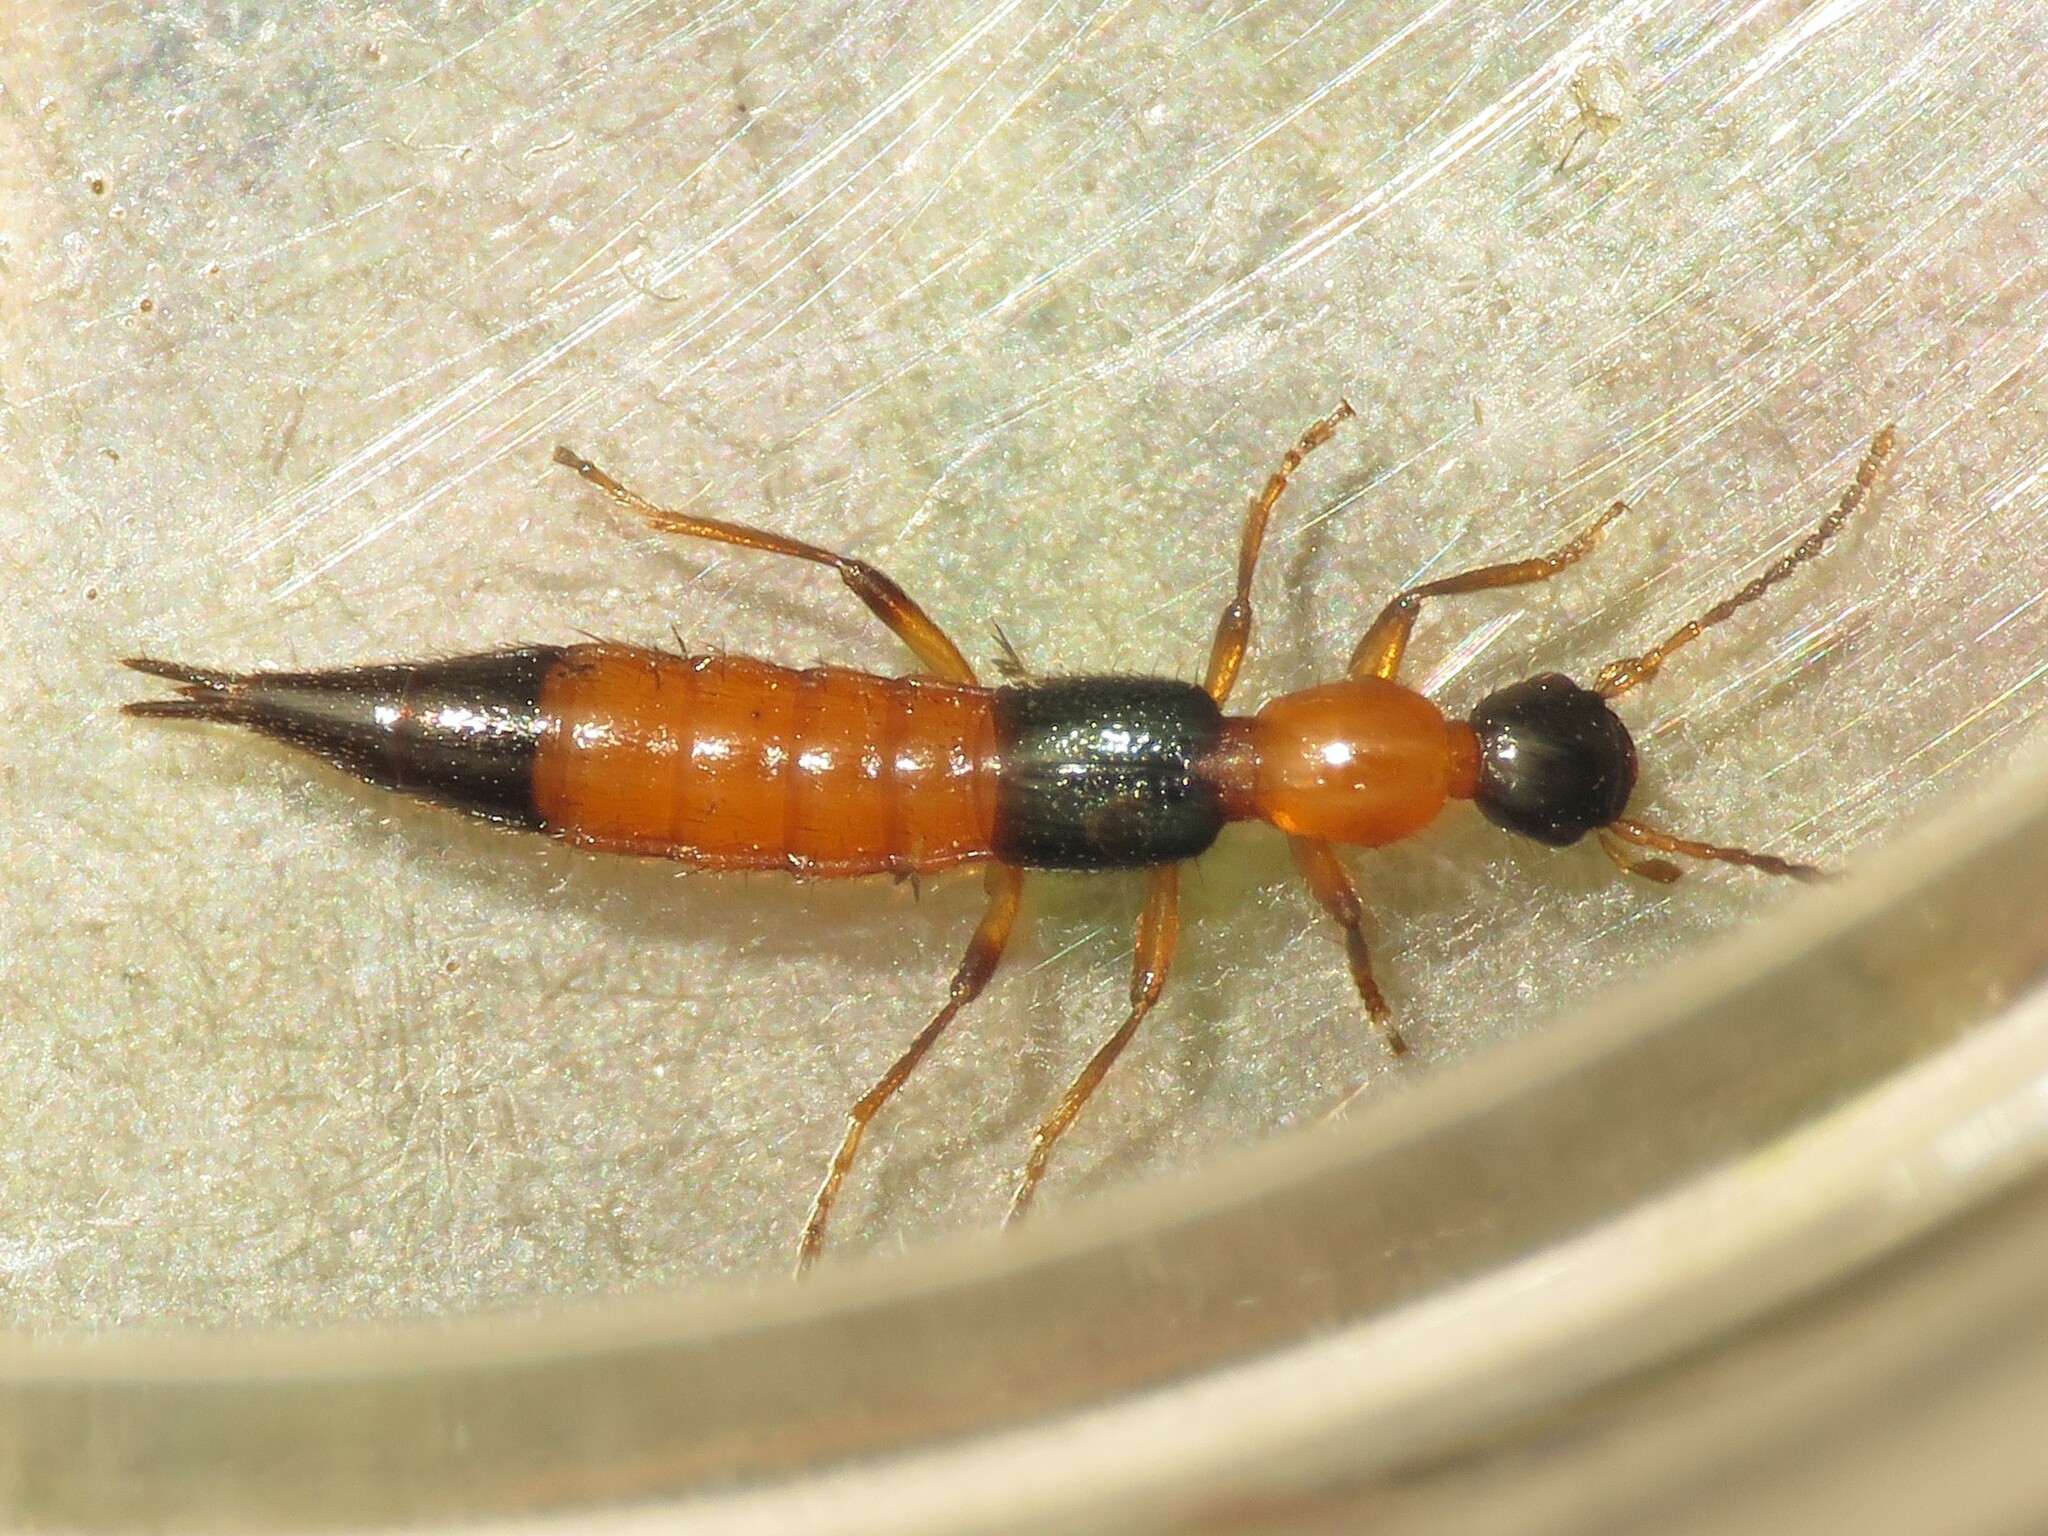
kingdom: Animalia
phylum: Arthropoda
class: Insecta
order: Coleoptera
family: Staphylinidae
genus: Paederus
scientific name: Paederus littorarius
